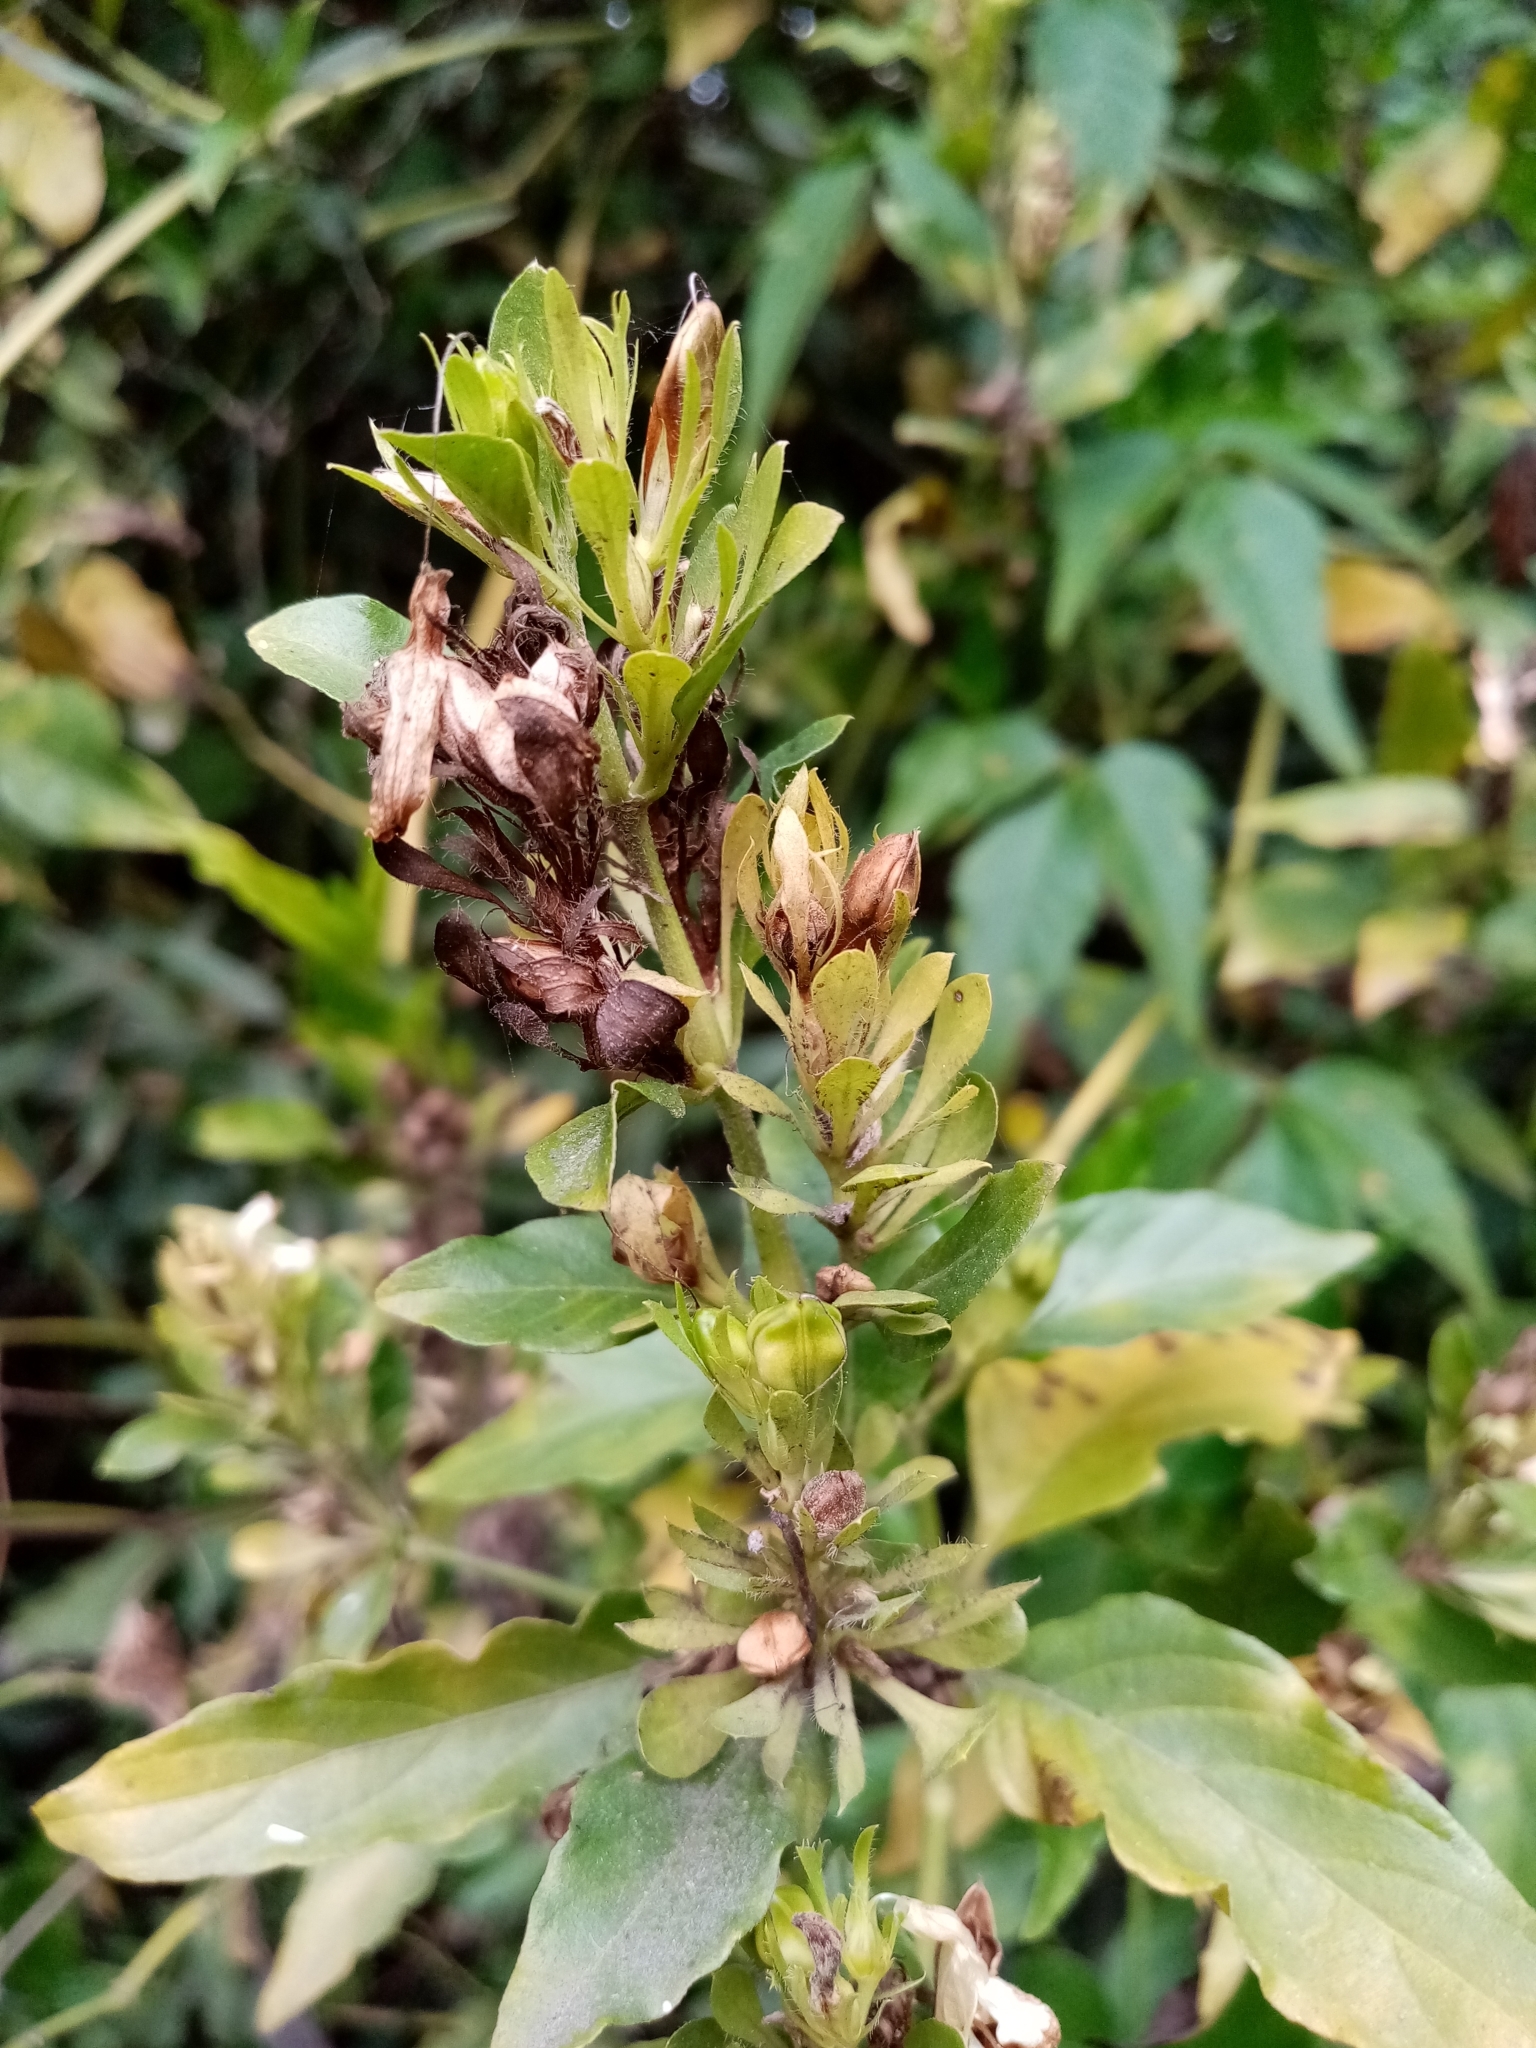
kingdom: Plantae
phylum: Tracheophyta
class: Magnoliopsida
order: Lamiales
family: Acanthaceae
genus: Poikilacanthus
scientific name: Poikilacanthus glandulosus
